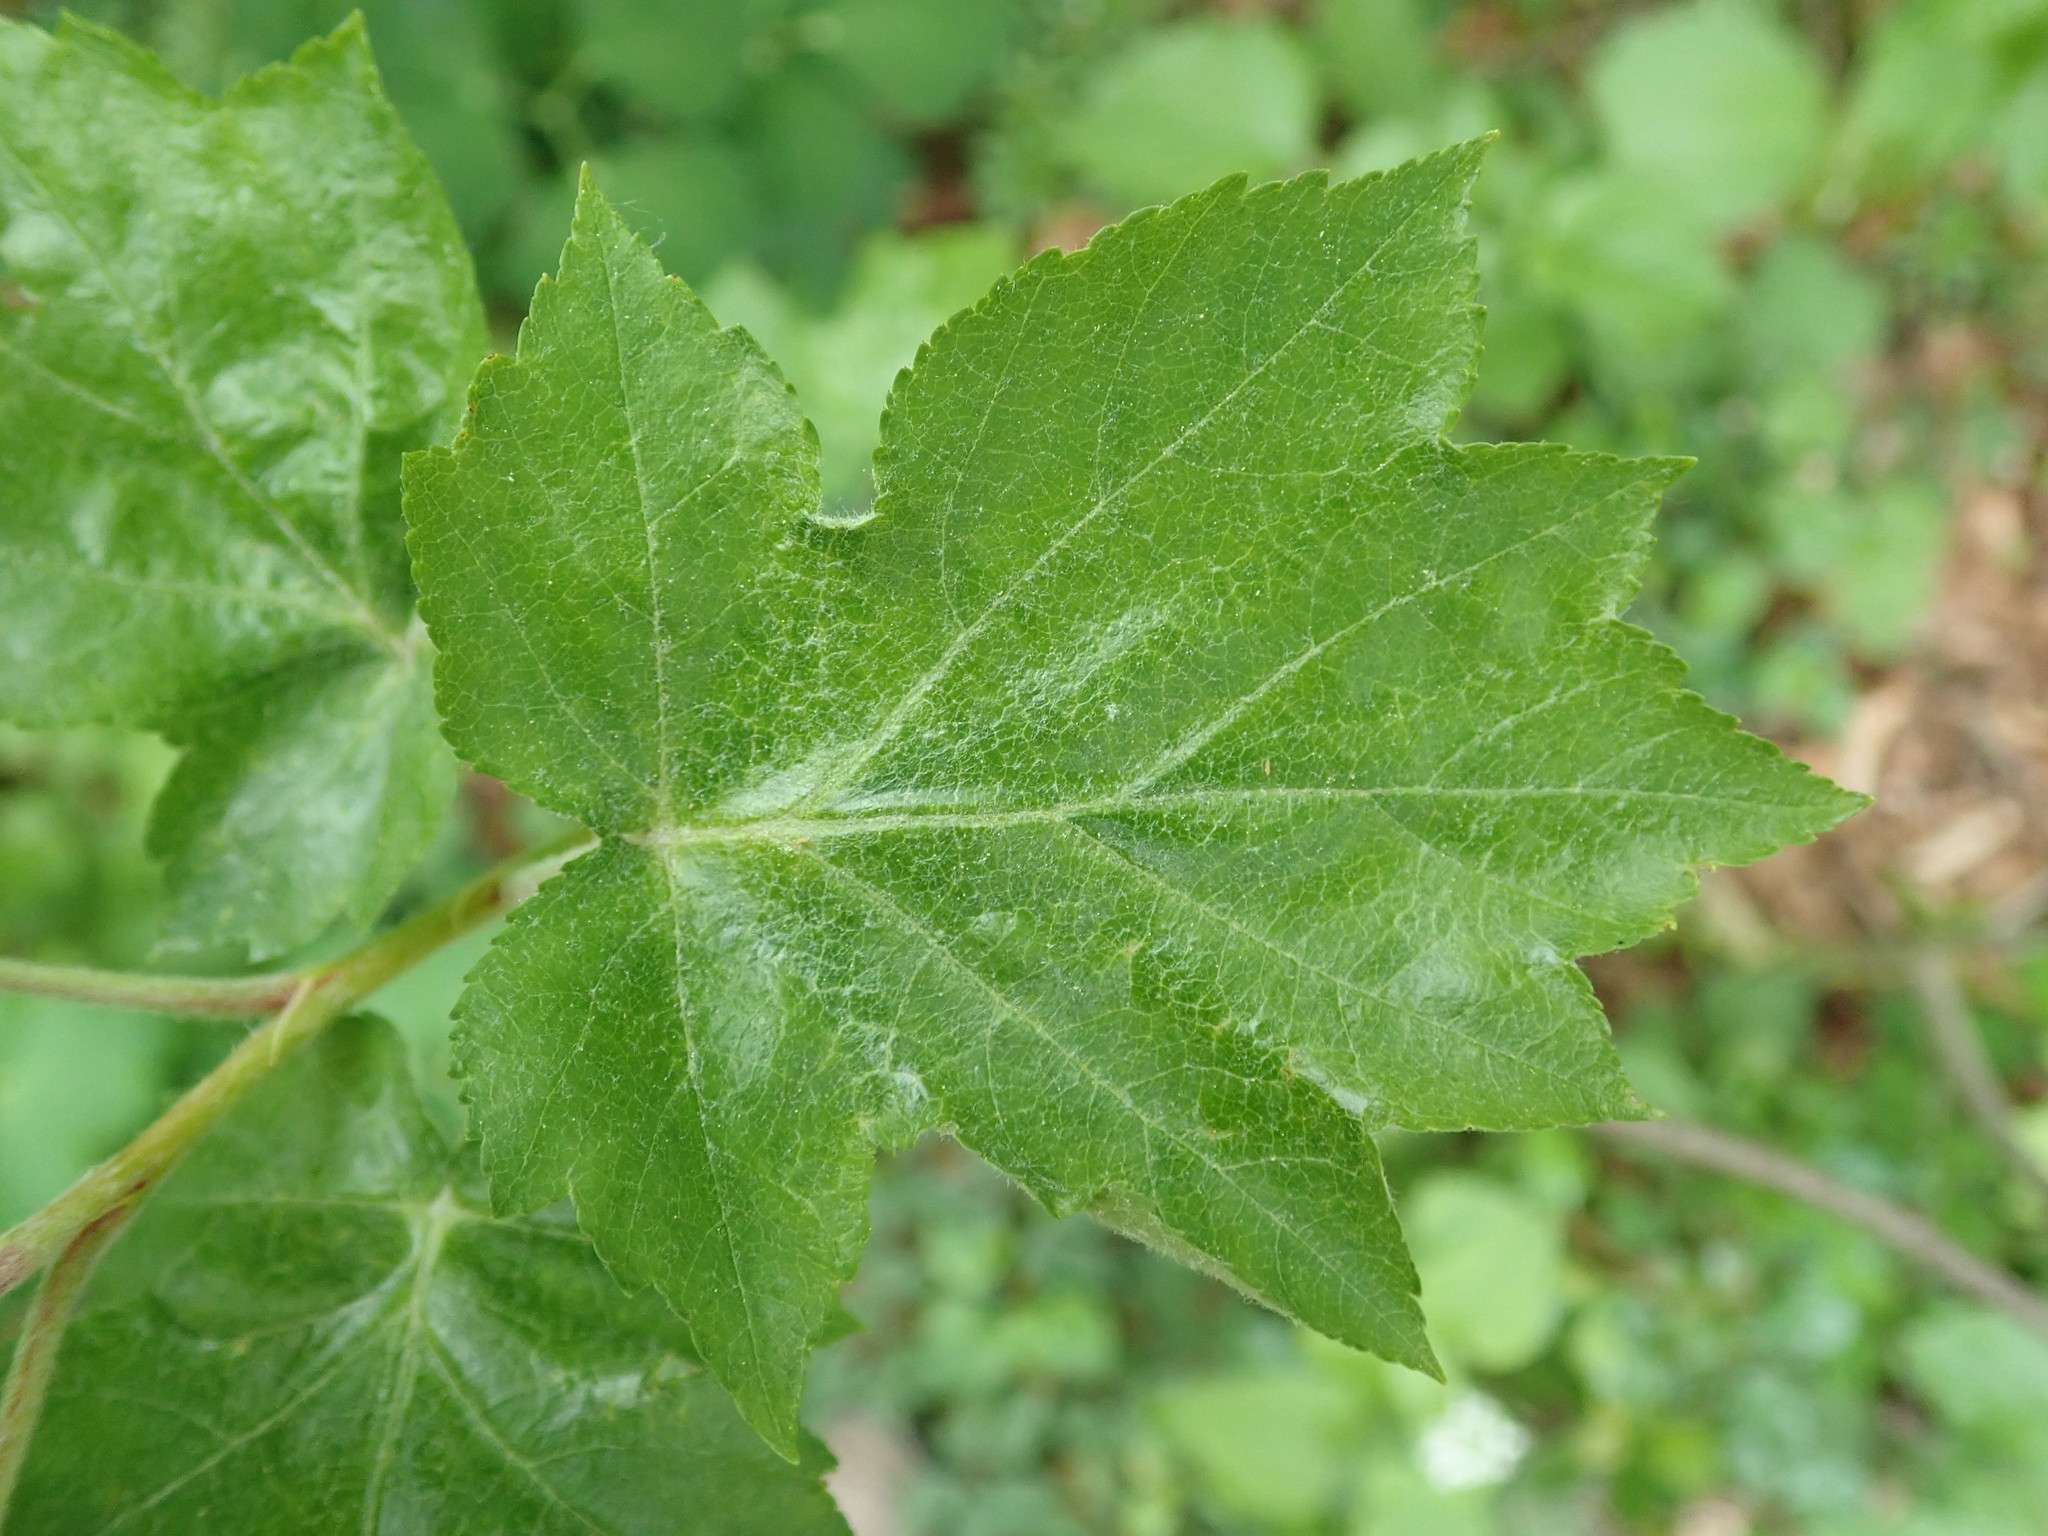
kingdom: Plantae
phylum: Tracheophyta
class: Magnoliopsida
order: Rosales
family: Rosaceae
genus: Torminalis
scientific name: Torminalis glaberrima
